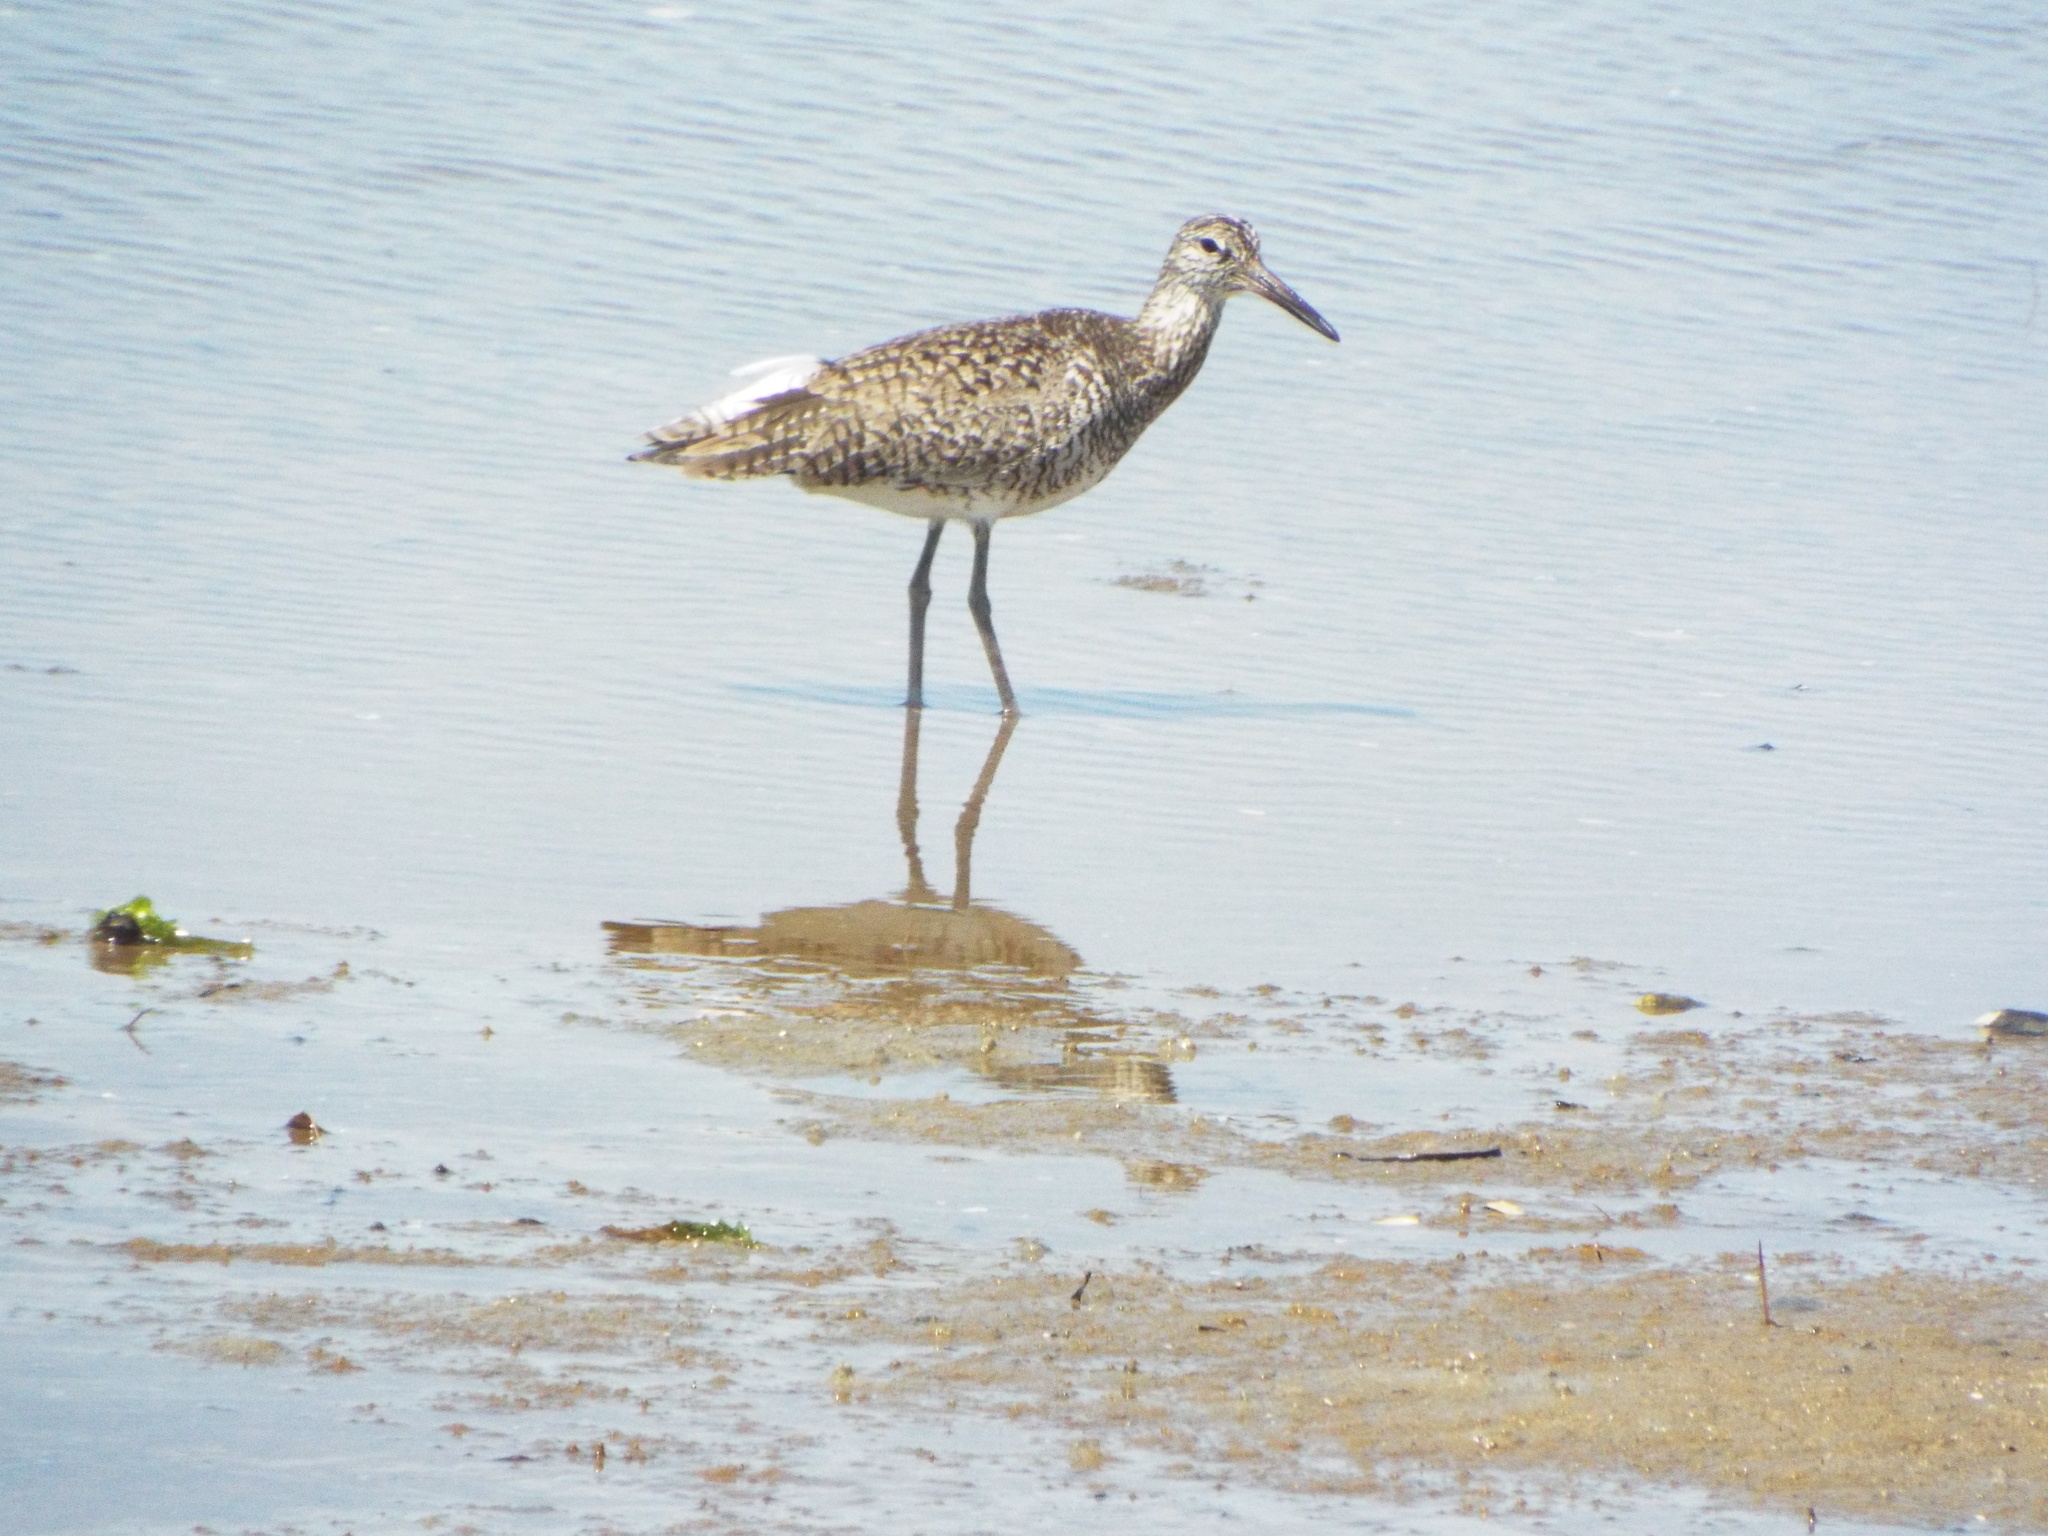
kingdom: Animalia
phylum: Chordata
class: Aves
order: Charadriiformes
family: Scolopacidae
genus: Tringa
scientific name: Tringa semipalmata
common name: Willet
